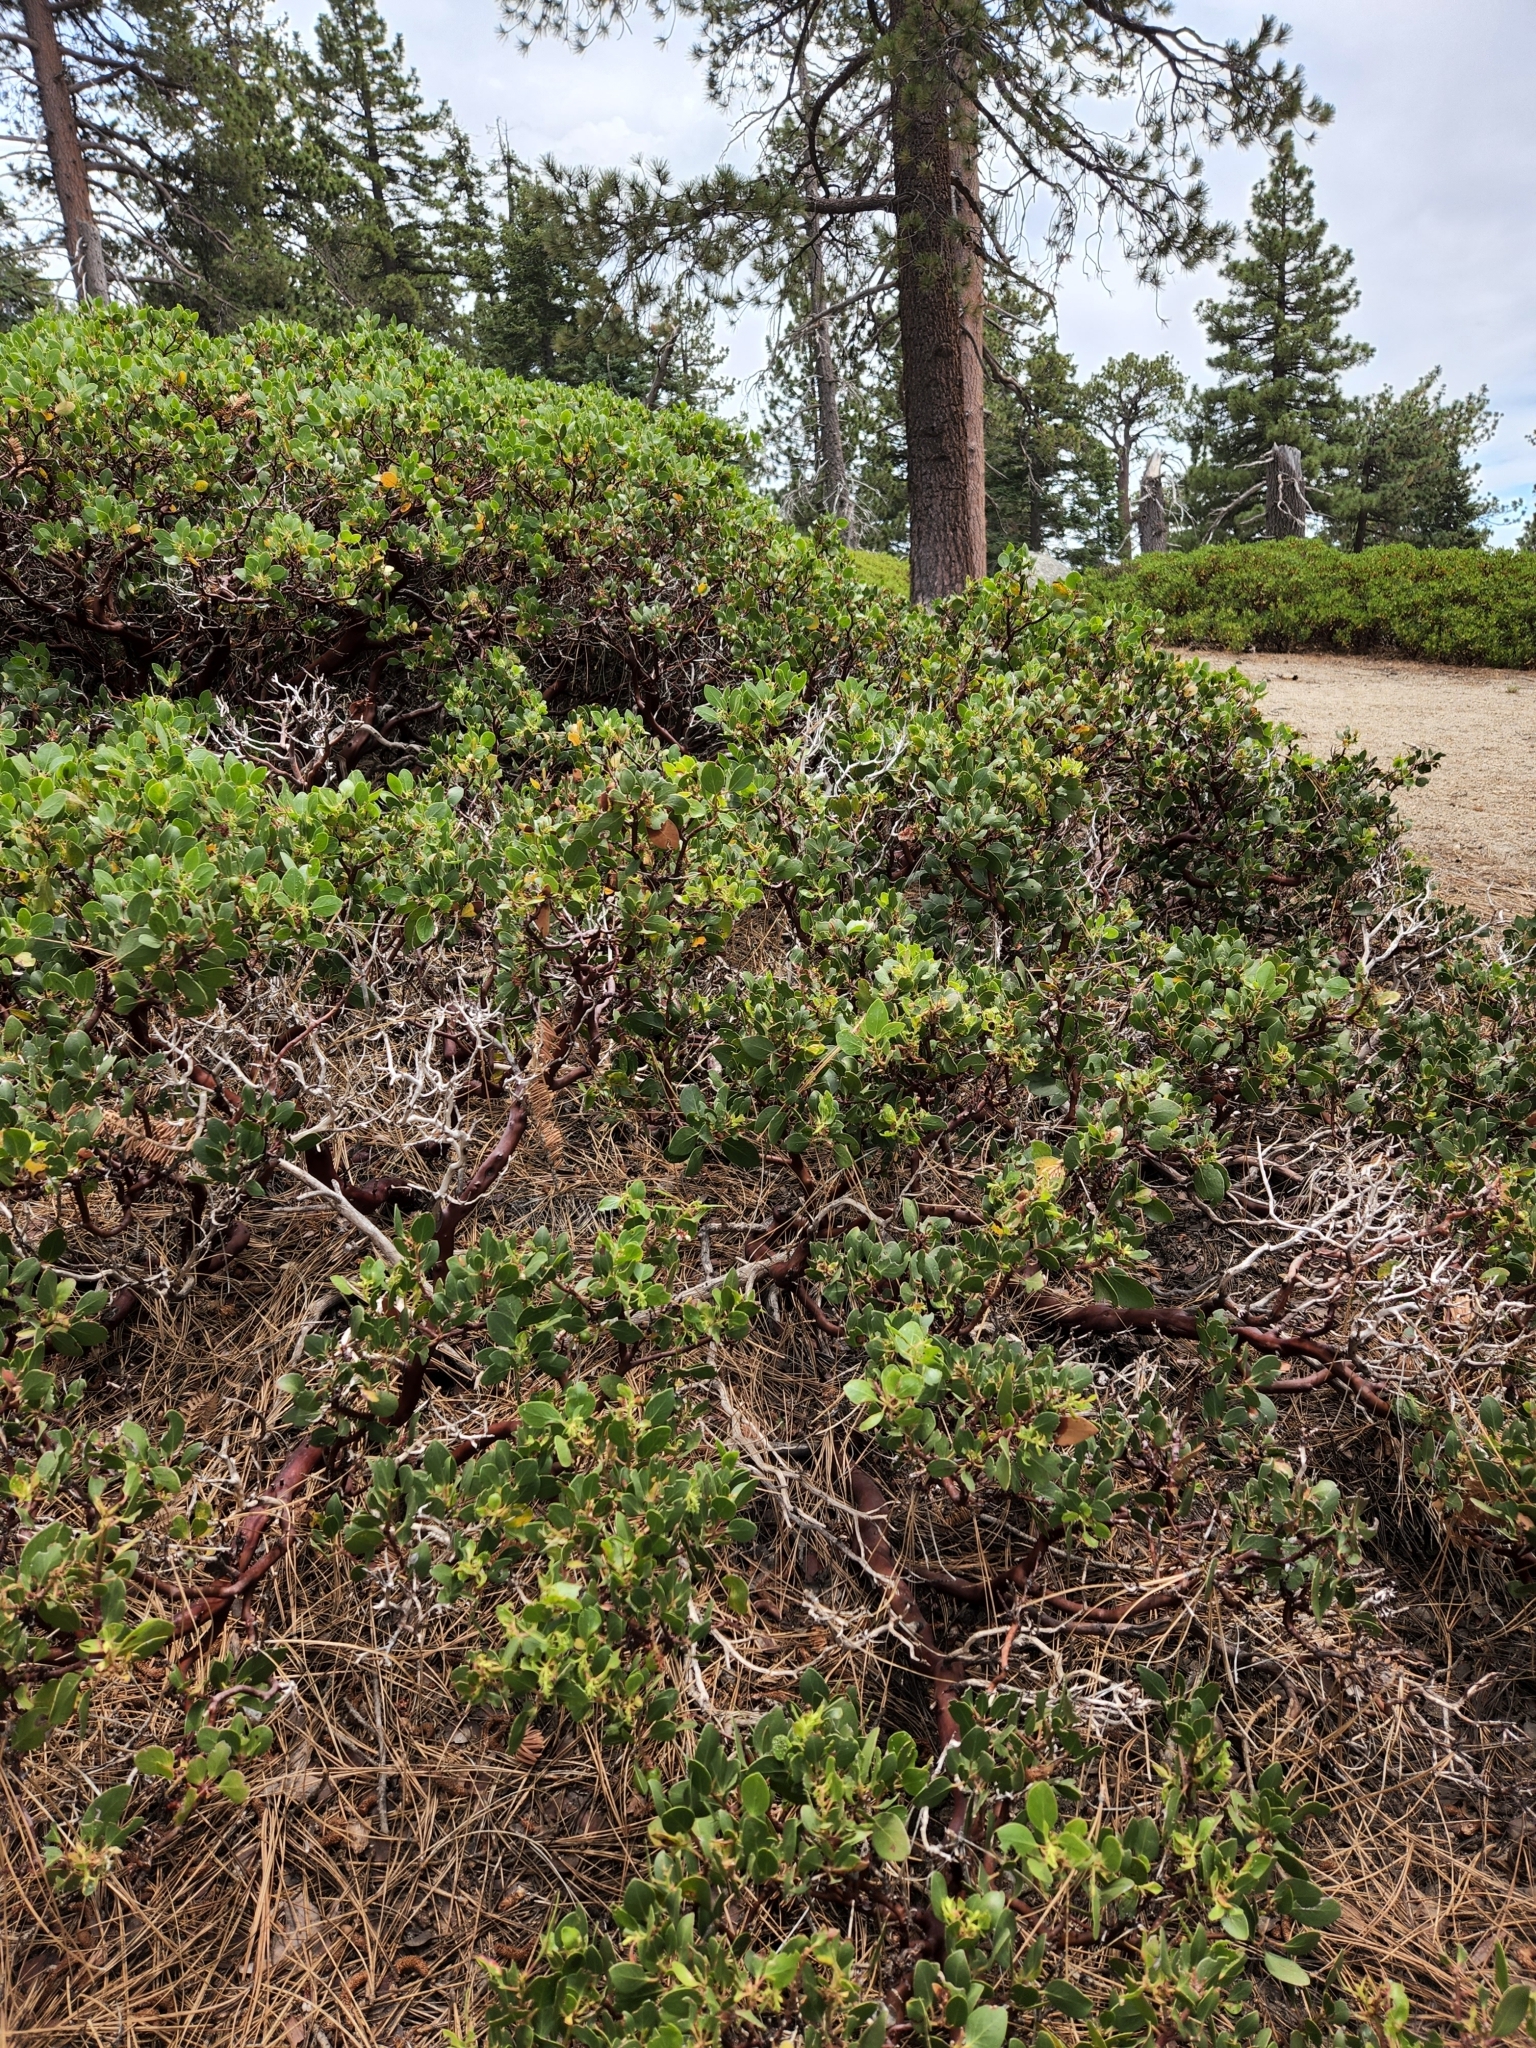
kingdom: Plantae
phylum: Tracheophyta
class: Magnoliopsida
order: Ericales
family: Ericaceae
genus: Arctostaphylos
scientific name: Arctostaphylos patula
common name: Green-leaf manzanita
